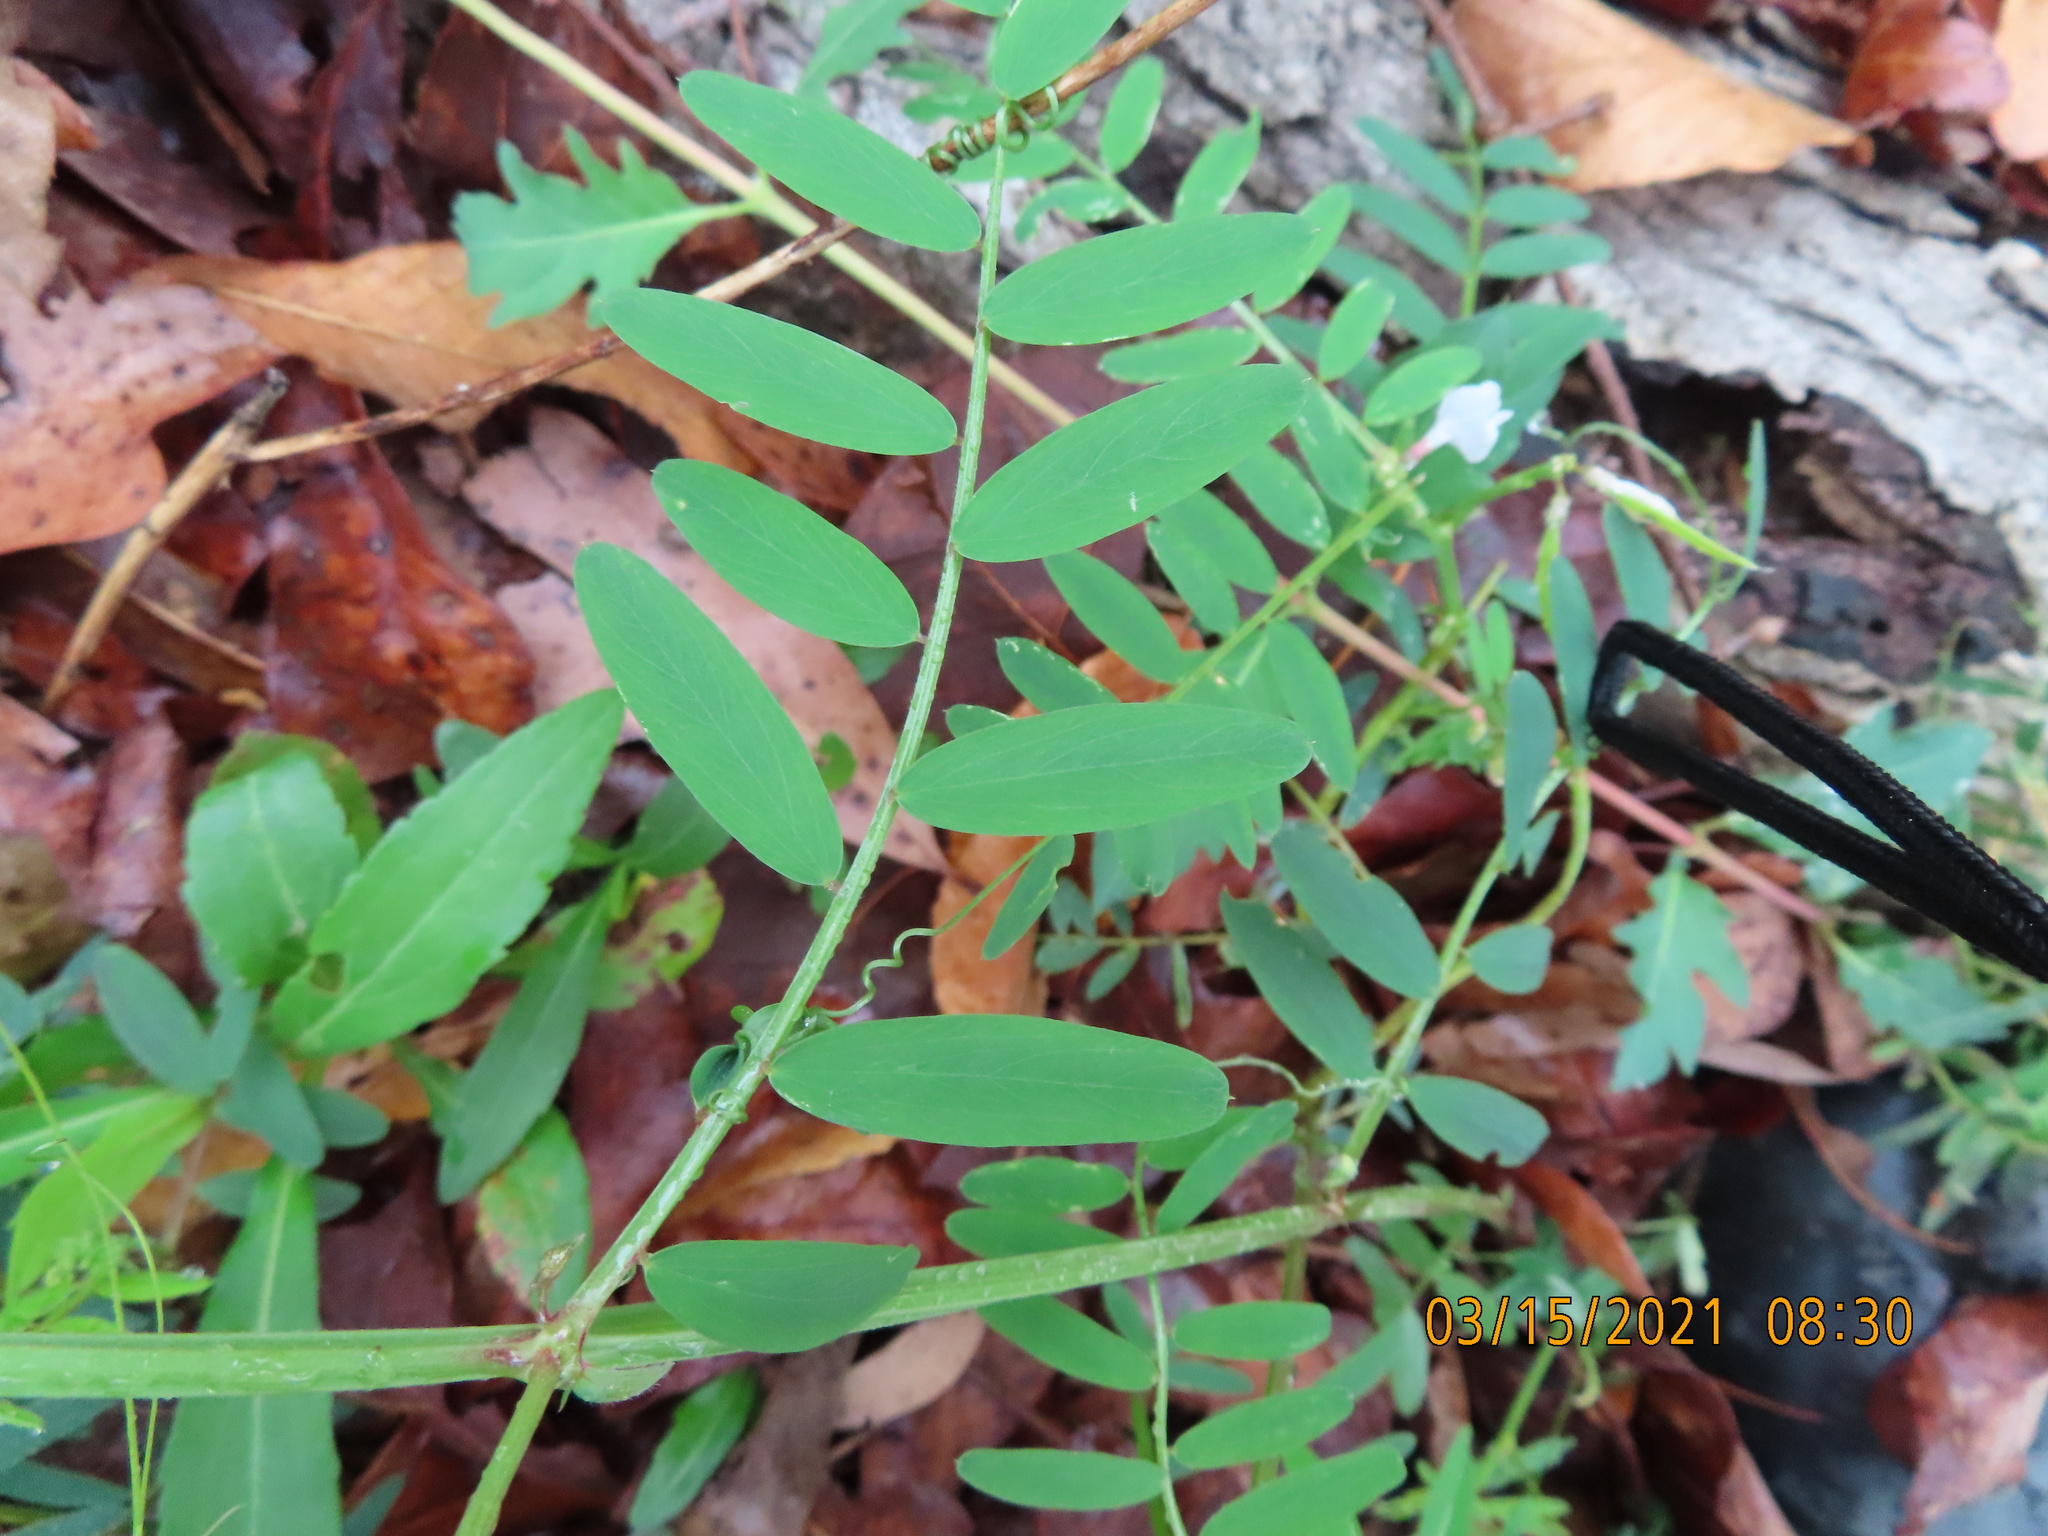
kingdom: Plantae
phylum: Tracheophyta
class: Magnoliopsida
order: Fabales
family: Fabaceae
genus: Vicia
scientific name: Vicia caroliniana
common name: Carolina vetch
